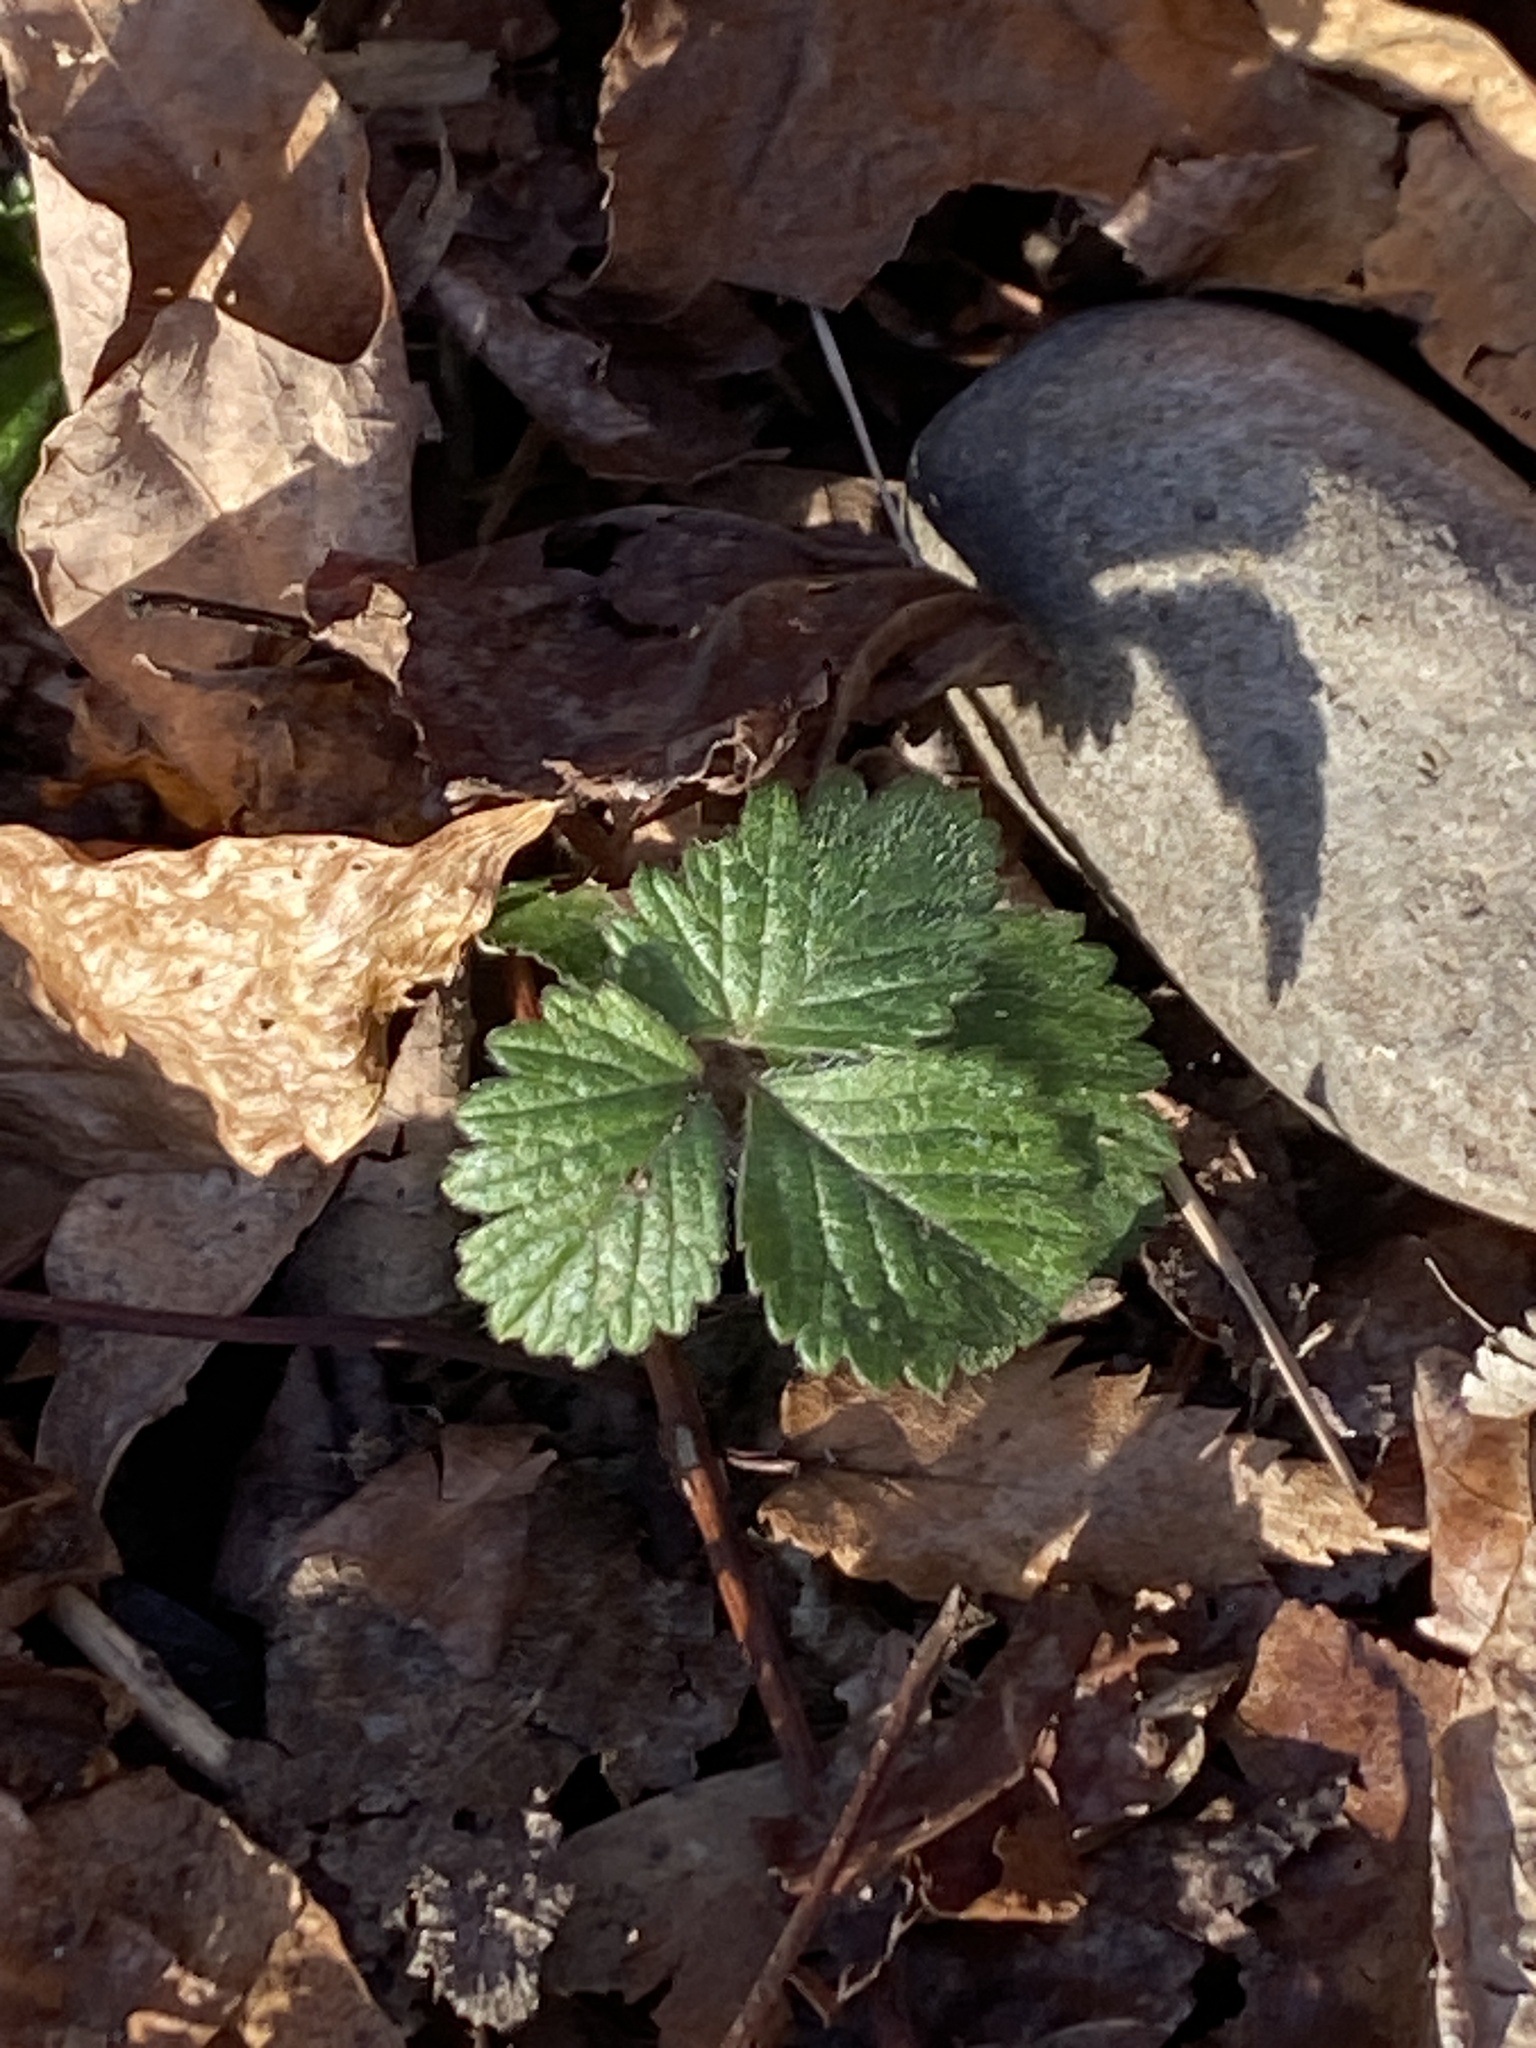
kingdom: Plantae
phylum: Tracheophyta
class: Magnoliopsida
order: Rosales
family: Rosaceae
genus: Potentilla
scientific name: Potentilla indica
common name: Yellow-flowered strawberry
